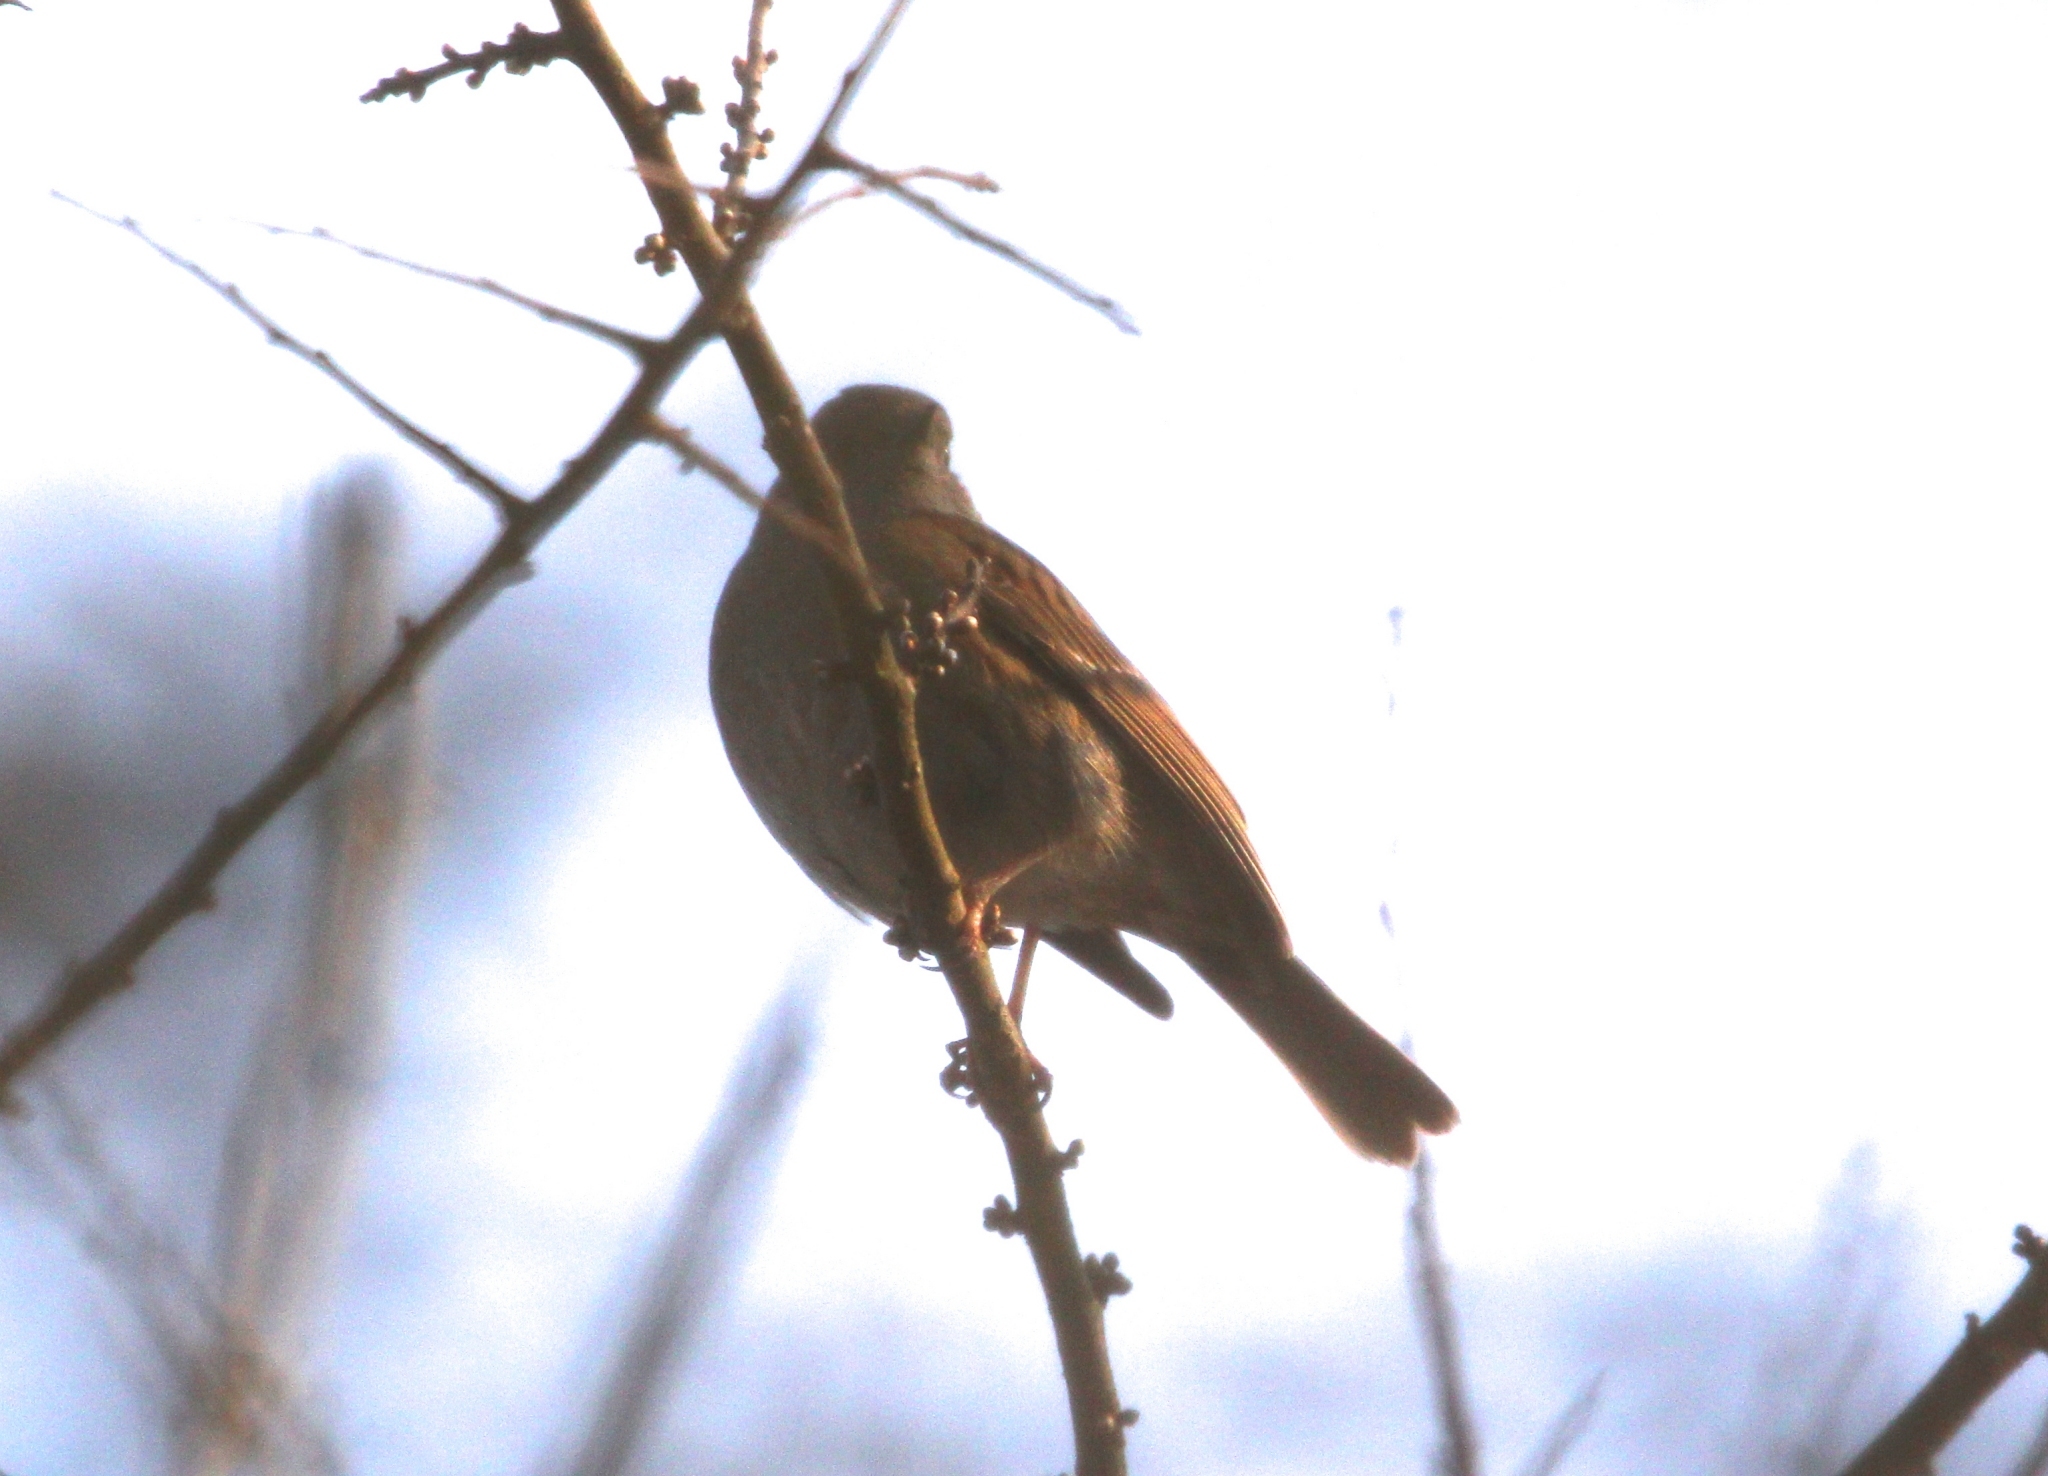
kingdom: Animalia
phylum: Chordata
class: Aves
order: Passeriformes
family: Prunellidae
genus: Prunella
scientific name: Prunella modularis
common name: Dunnock
